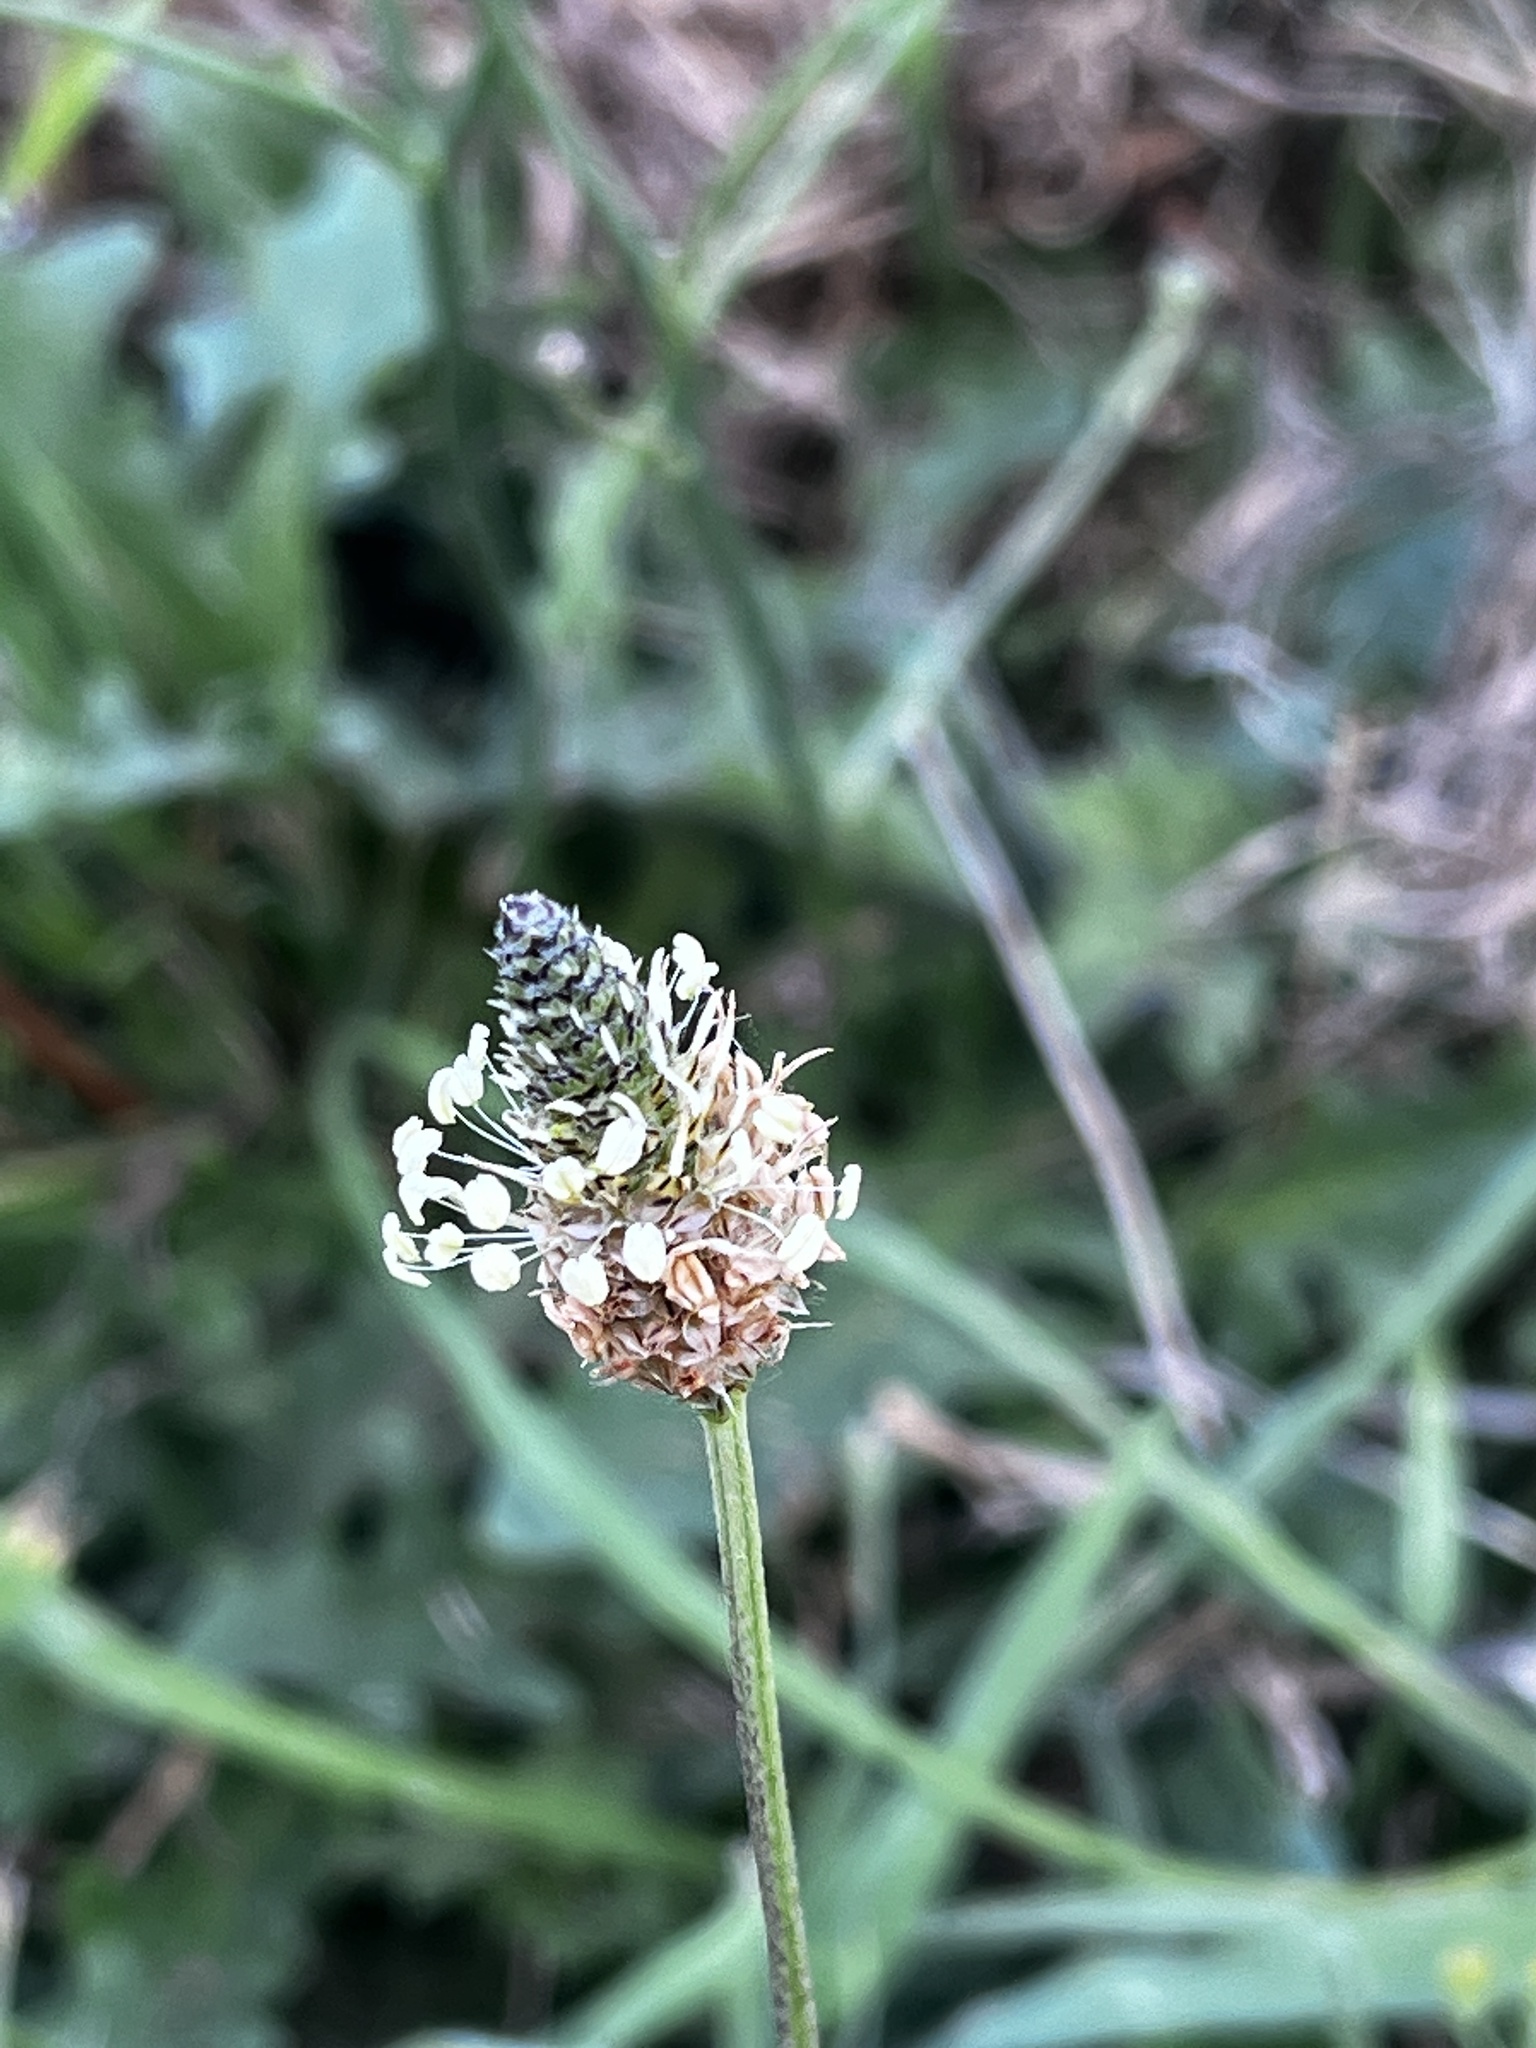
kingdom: Plantae
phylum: Tracheophyta
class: Magnoliopsida
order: Lamiales
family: Plantaginaceae
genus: Plantago
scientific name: Plantago lanceolata
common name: Ribwort plantain
